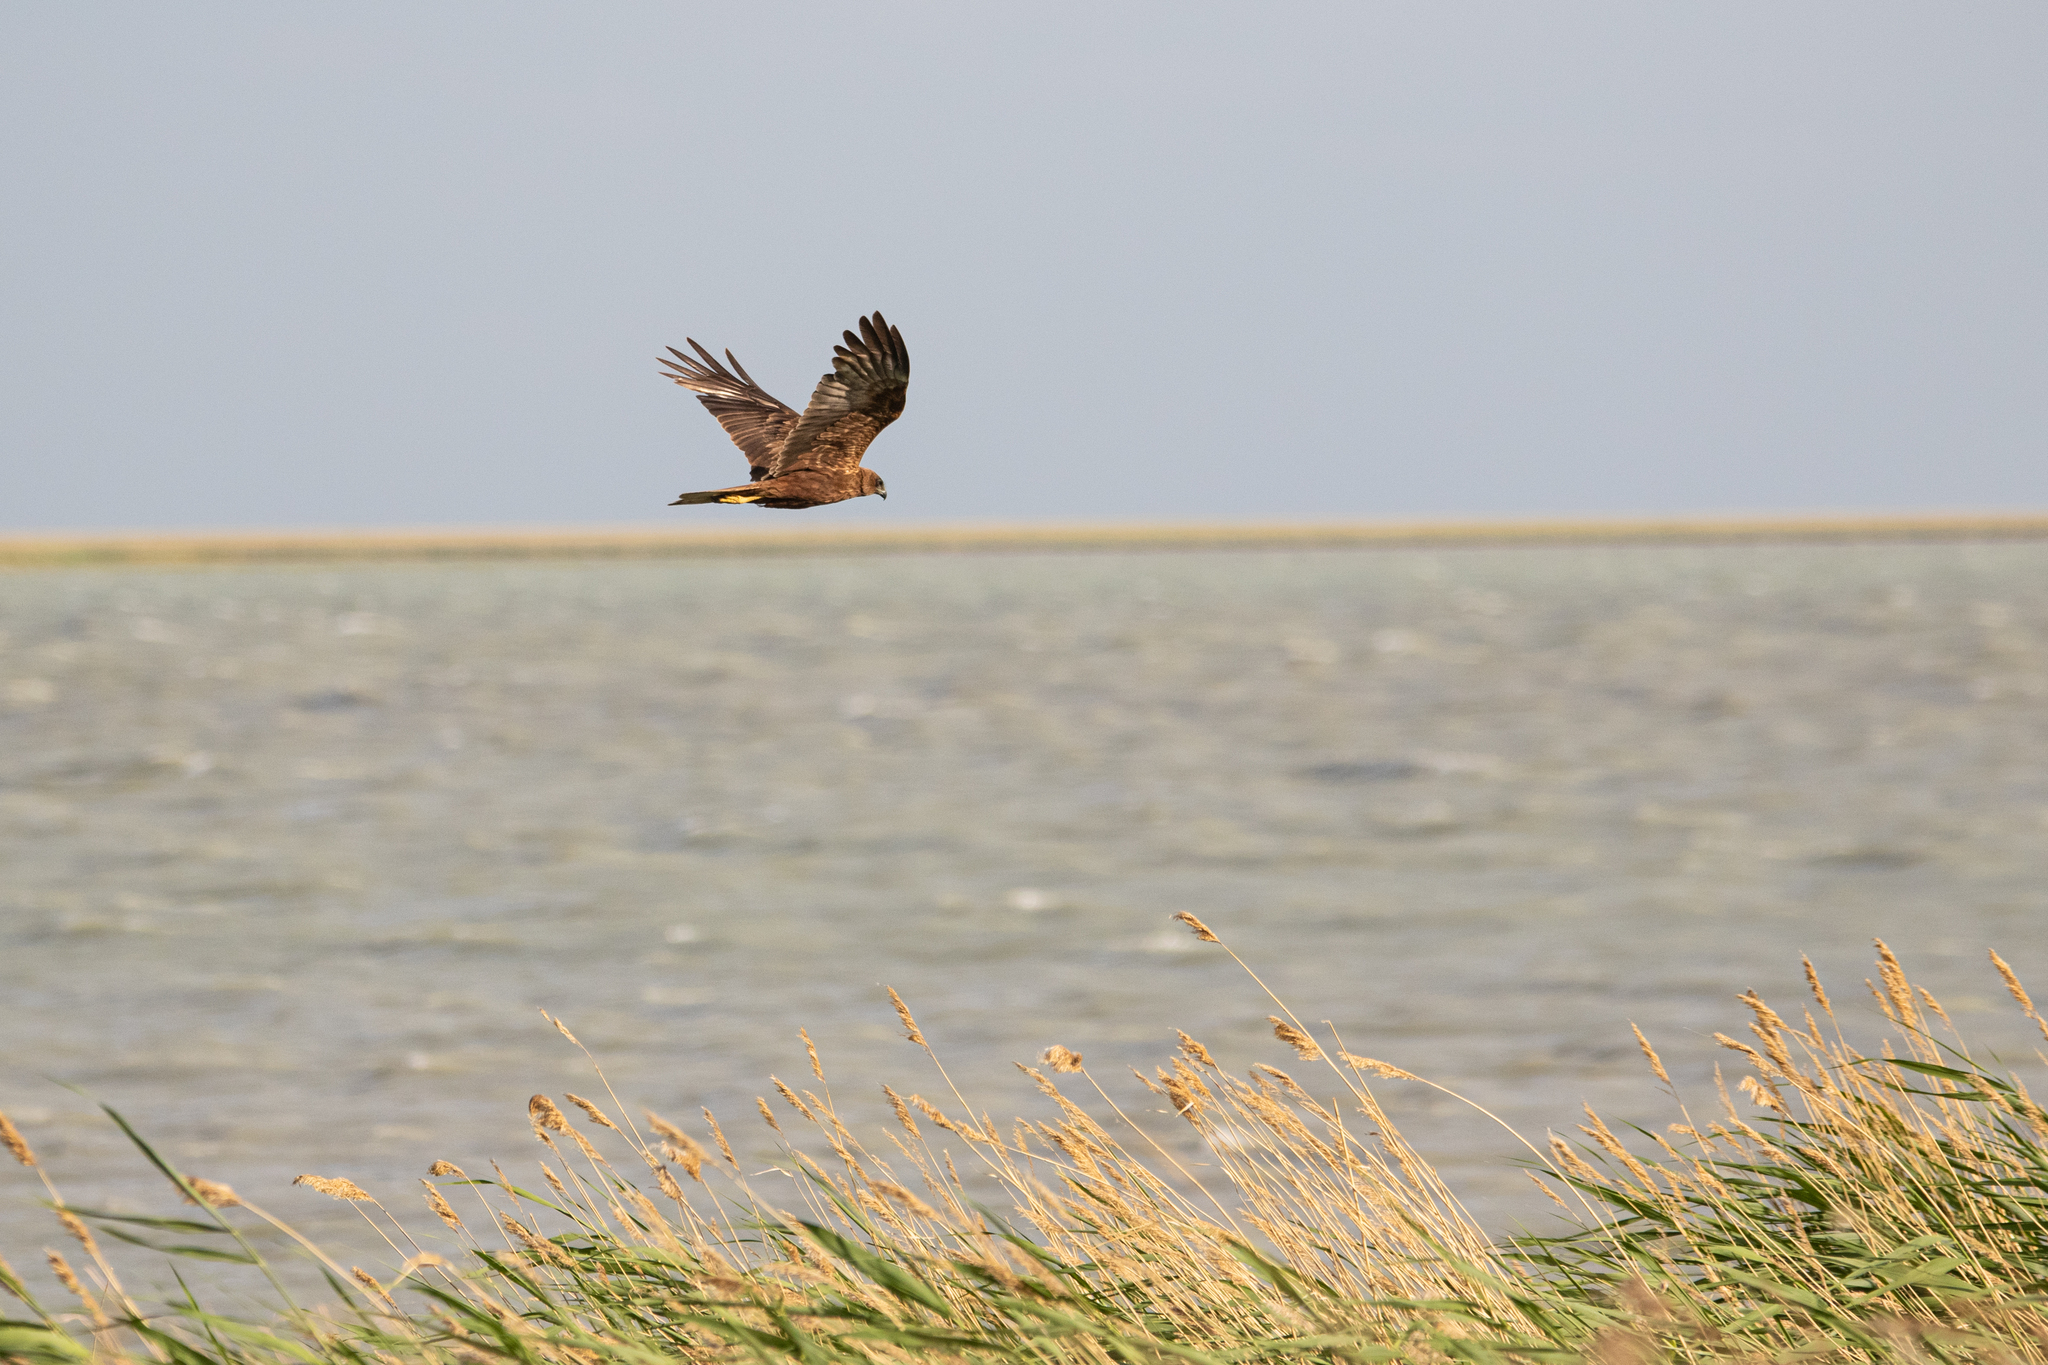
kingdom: Animalia
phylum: Chordata
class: Aves
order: Accipitriformes
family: Accipitridae
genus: Circus
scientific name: Circus aeruginosus
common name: Western marsh harrier
